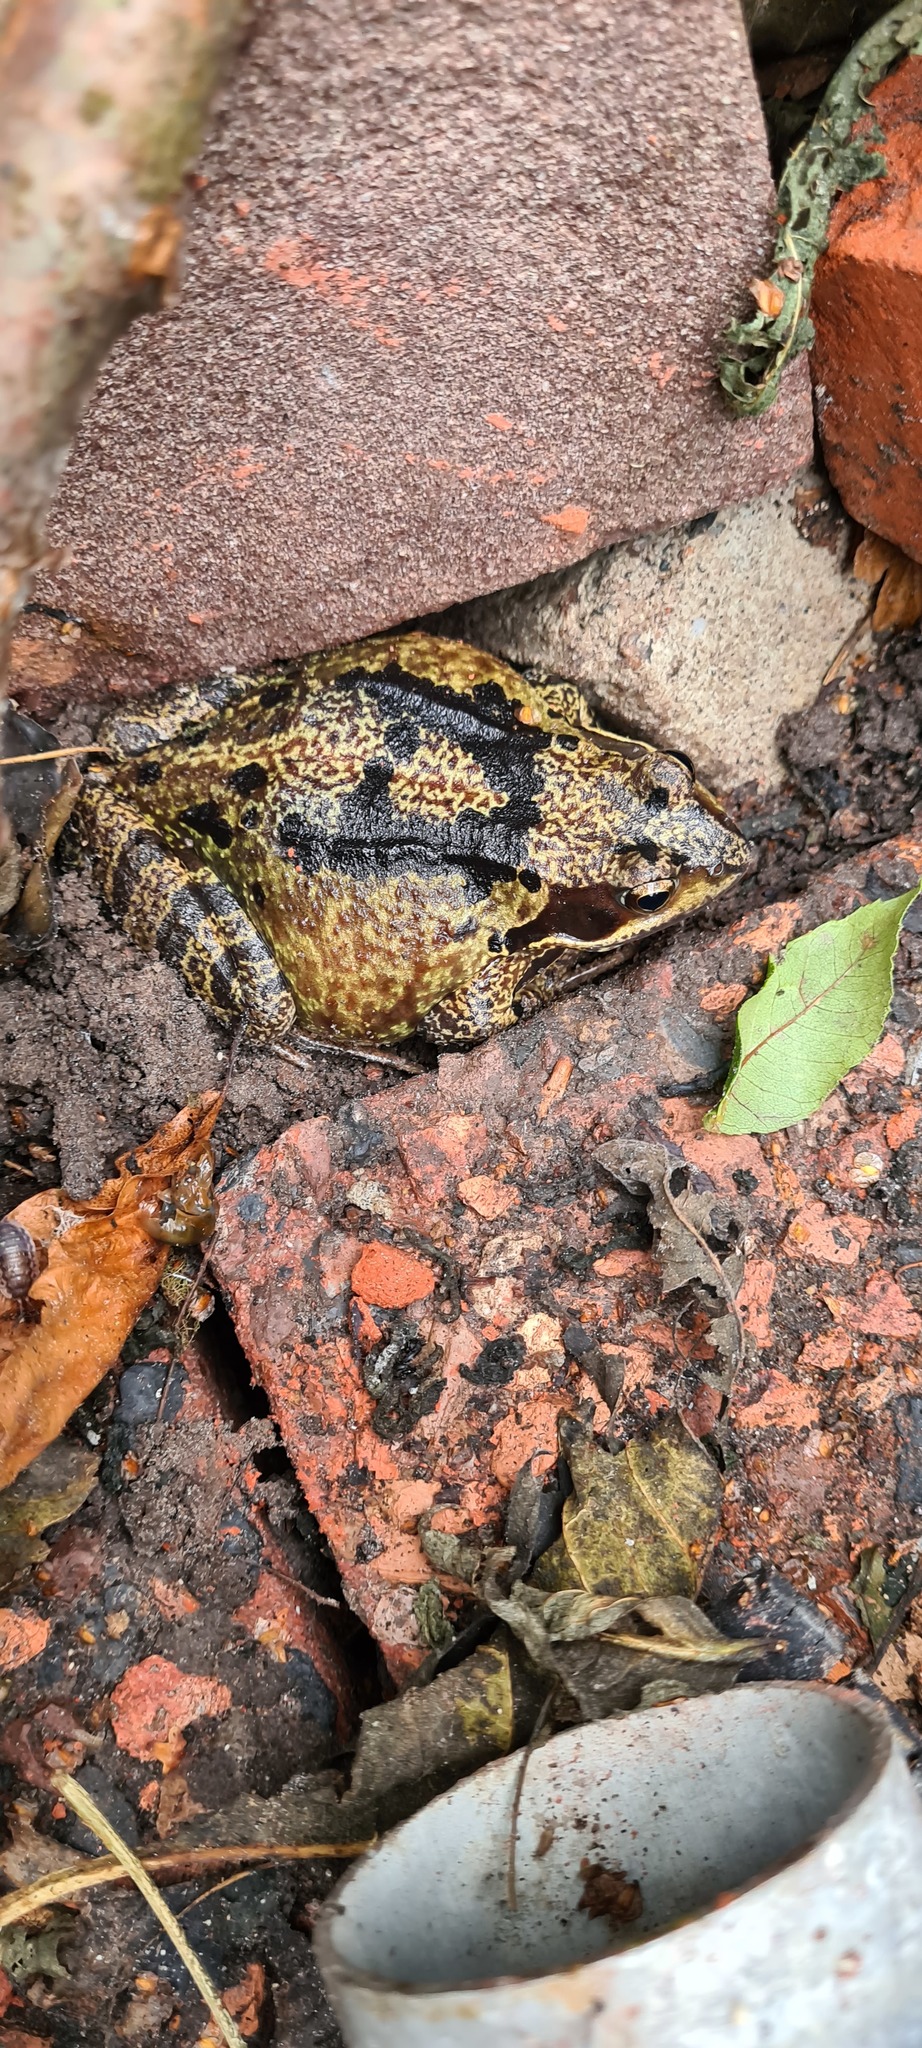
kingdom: Animalia
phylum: Chordata
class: Amphibia
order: Anura
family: Ranidae
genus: Rana
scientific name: Rana temporaria
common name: Common frog
